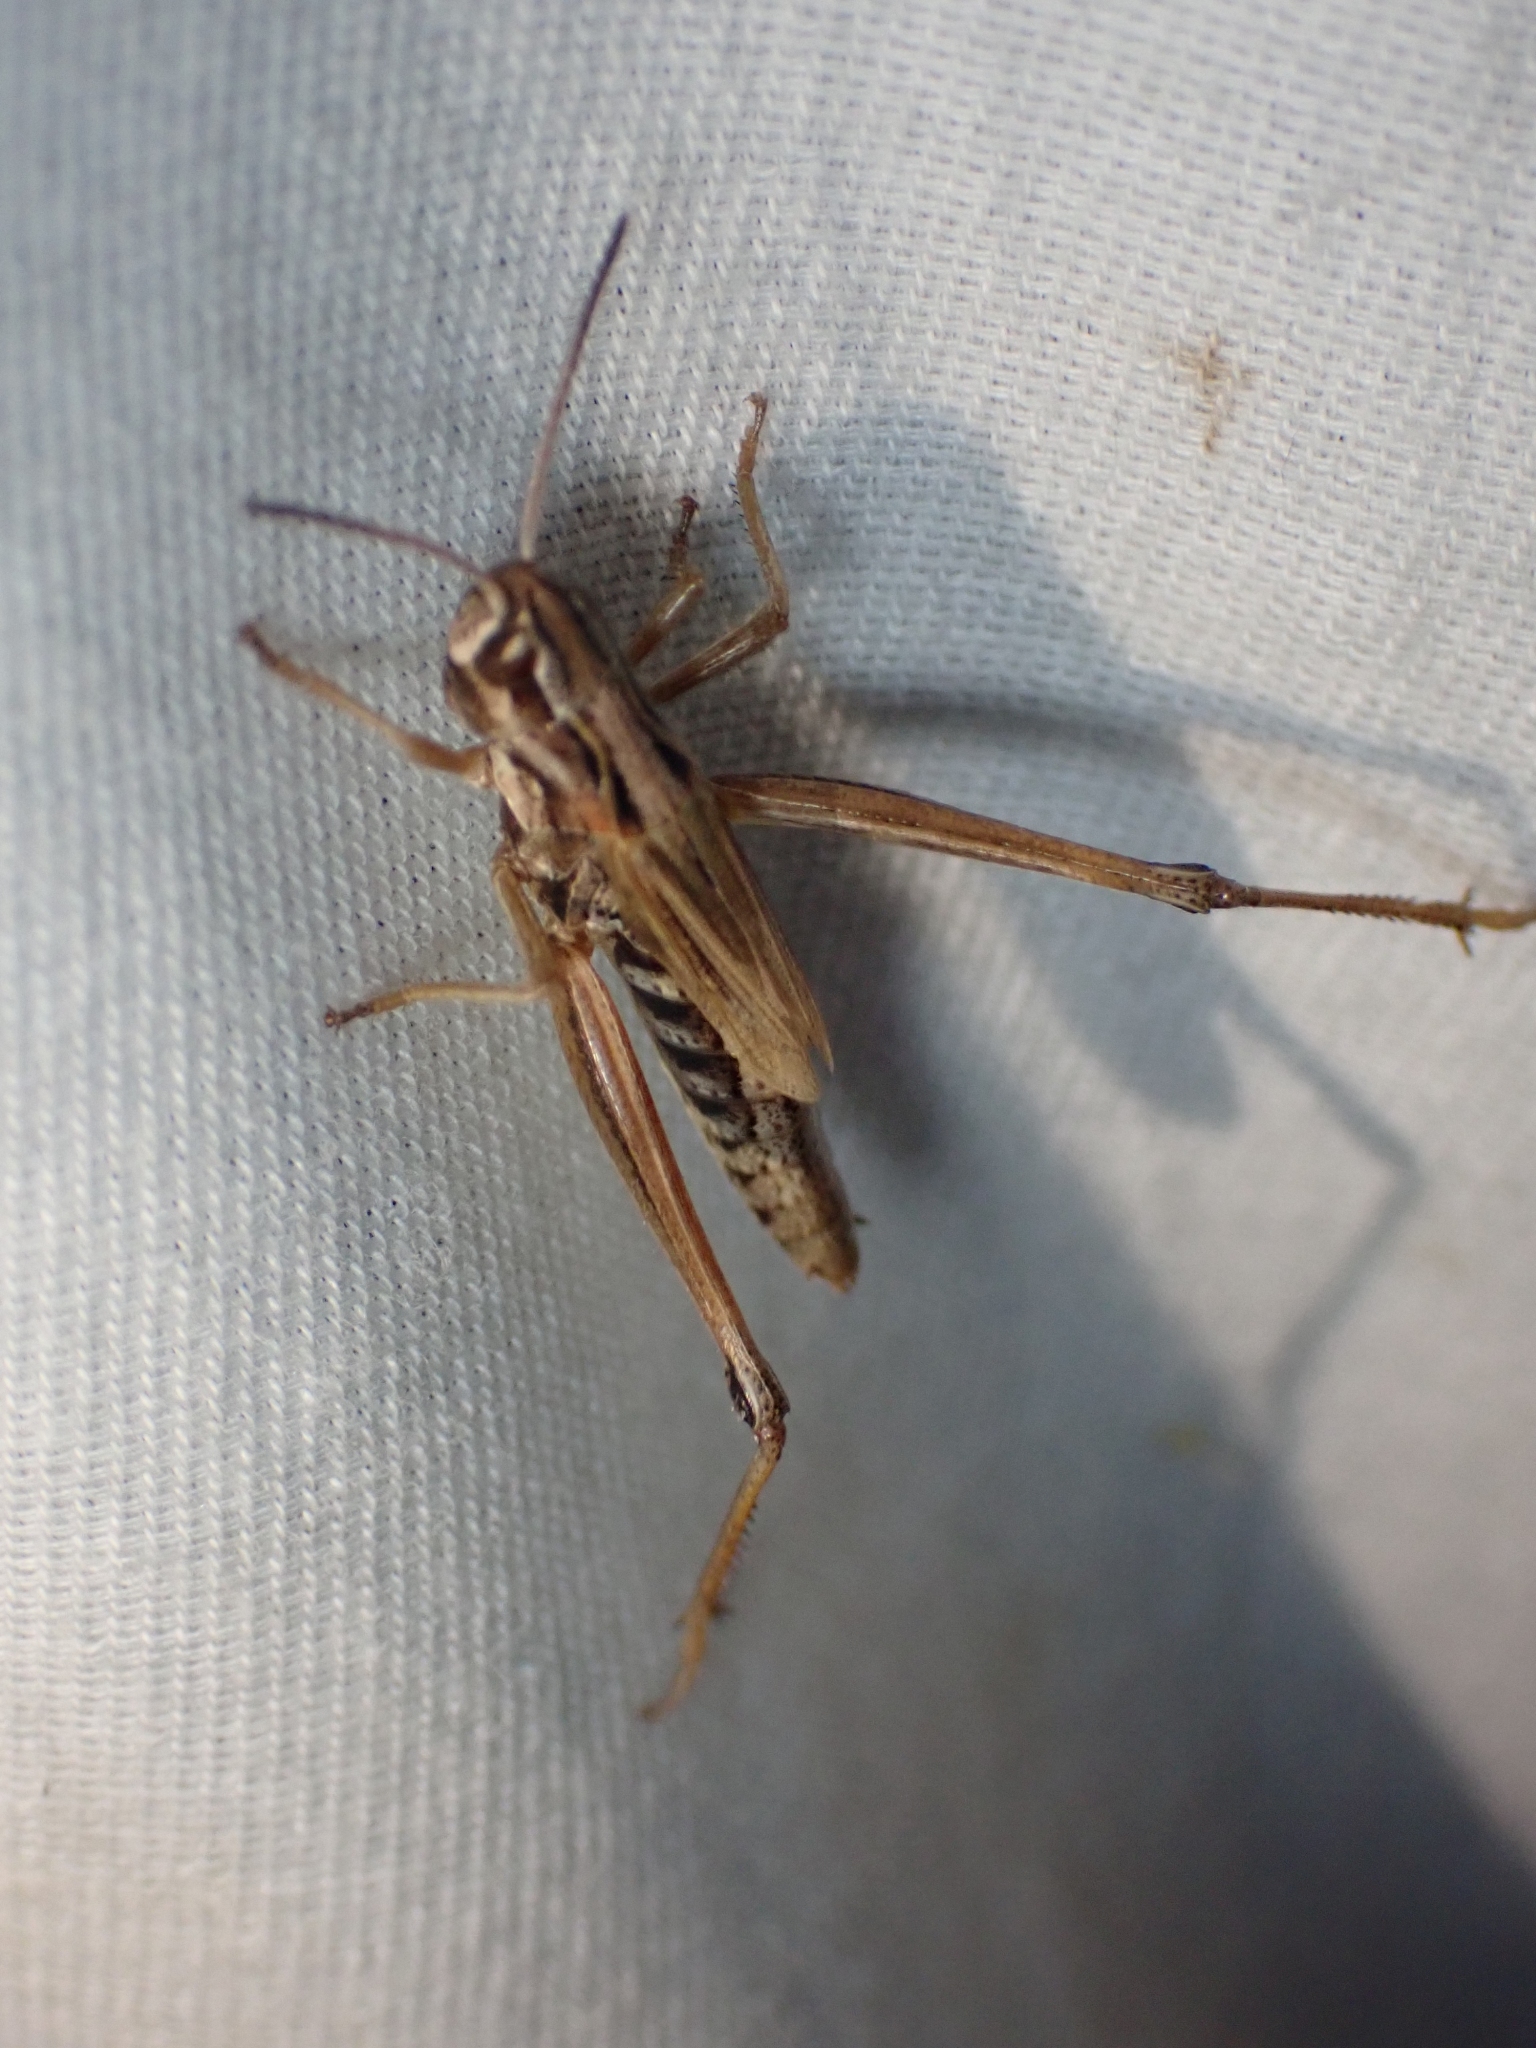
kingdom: Animalia
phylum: Arthropoda
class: Insecta
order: Orthoptera
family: Acrididae
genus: Pseudochorthippus
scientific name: Pseudochorthippus curtipennis
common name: Marsh meadow grasshopper
